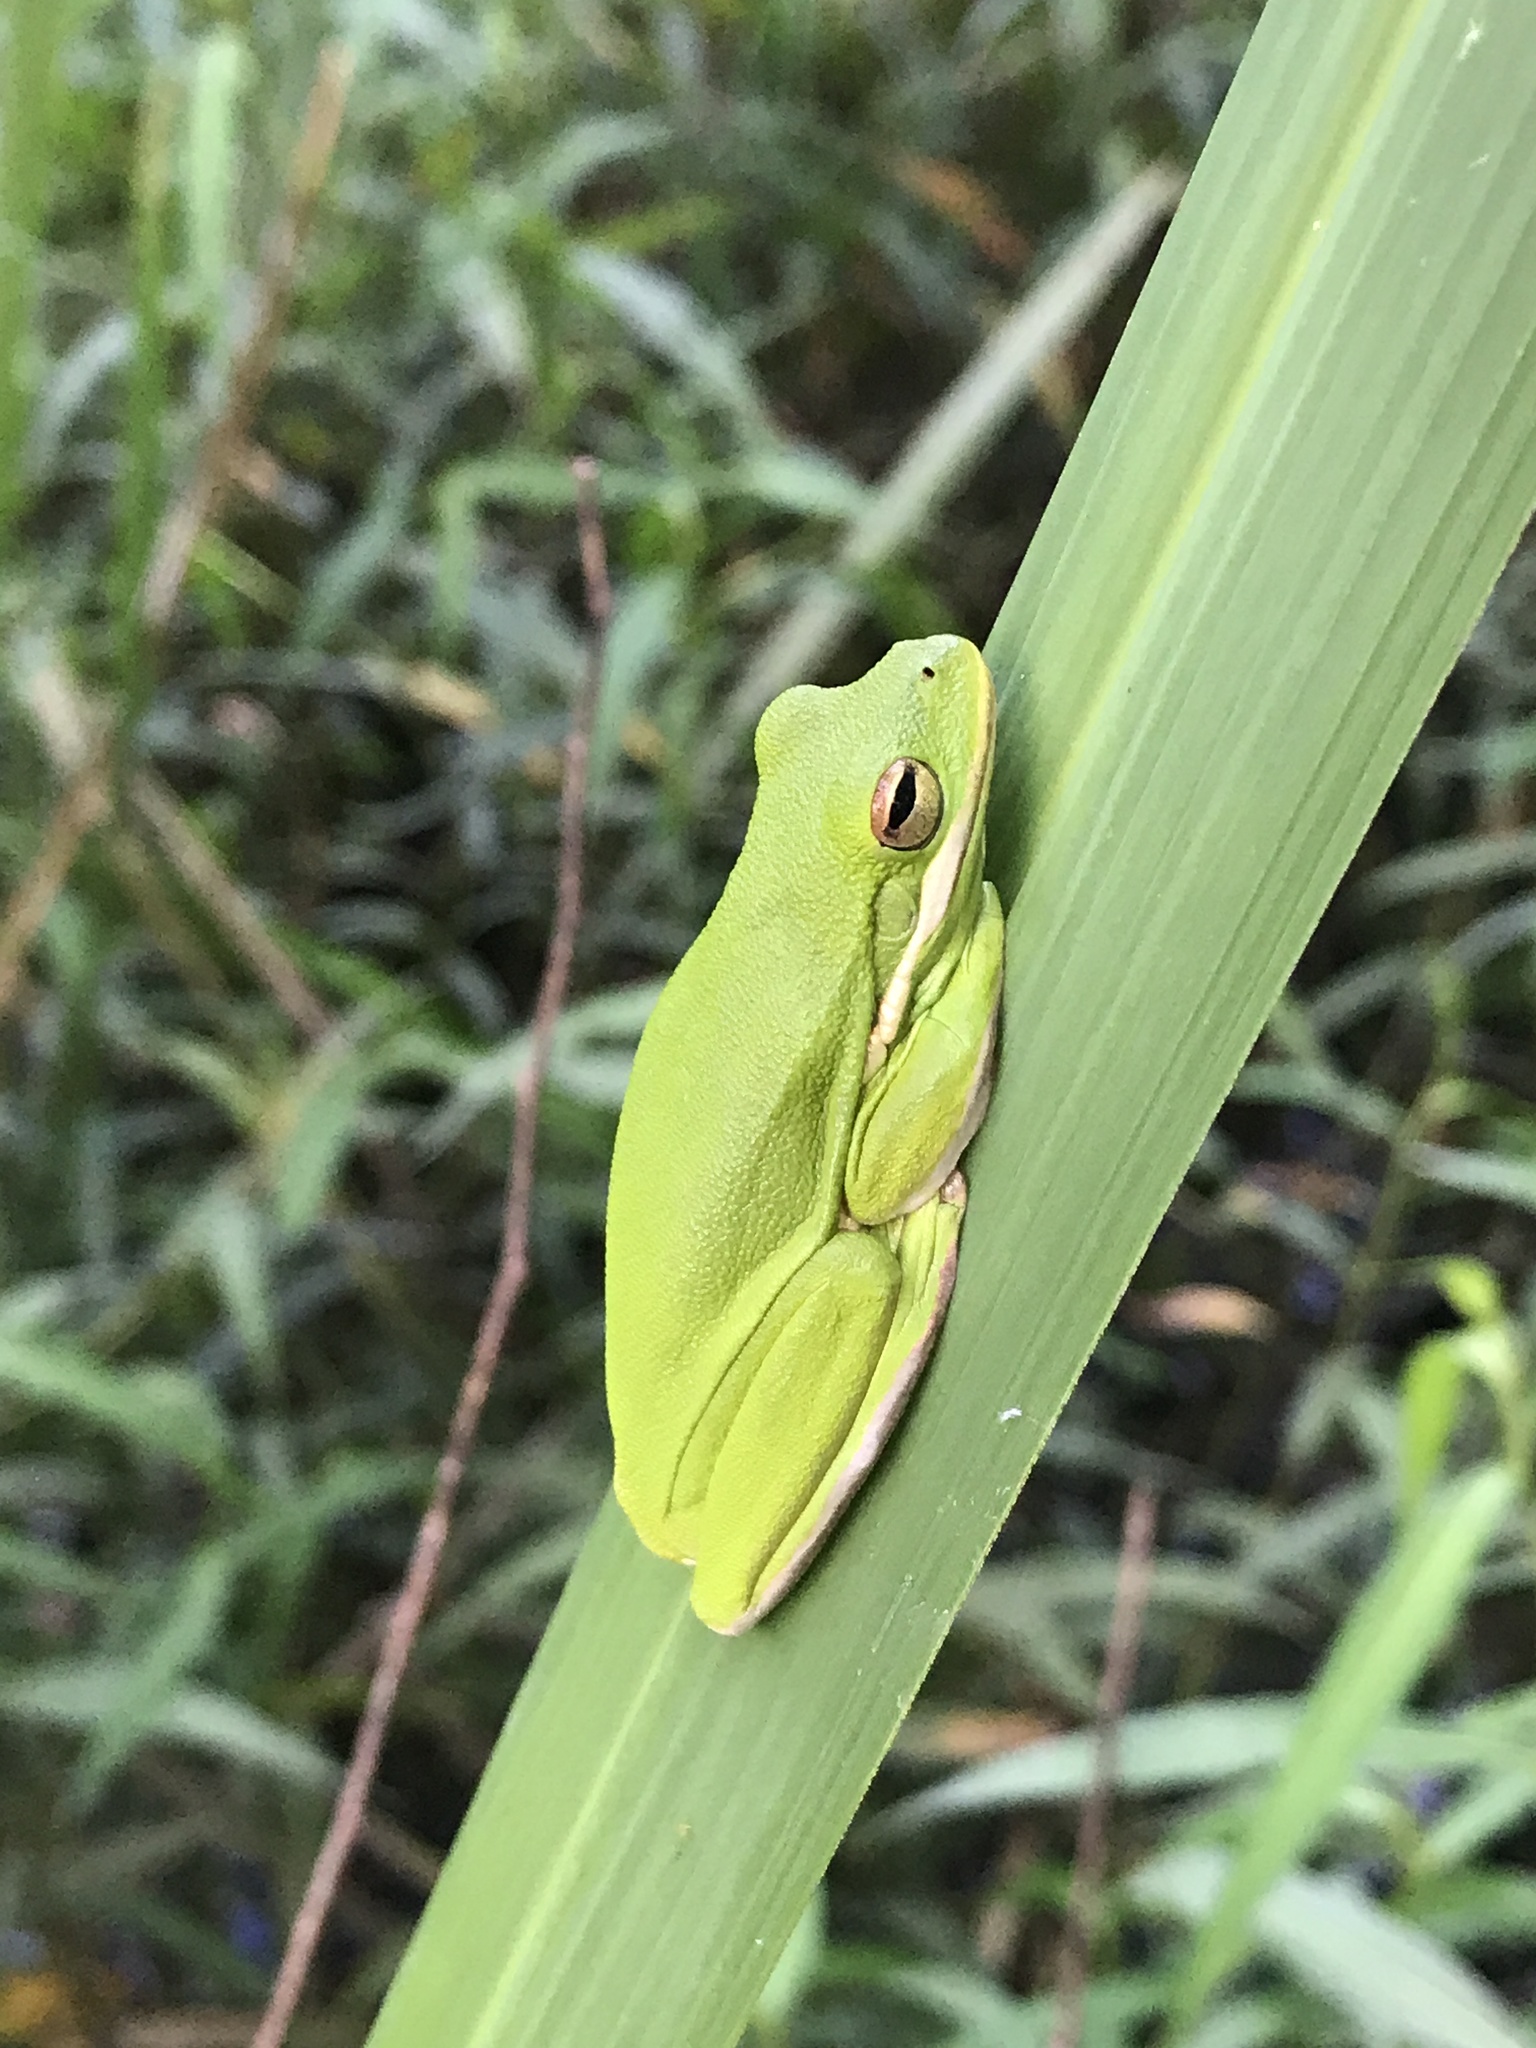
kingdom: Animalia
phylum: Chordata
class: Amphibia
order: Anura
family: Hylidae
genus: Dryophytes
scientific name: Dryophytes cinereus
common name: Green treefrog
